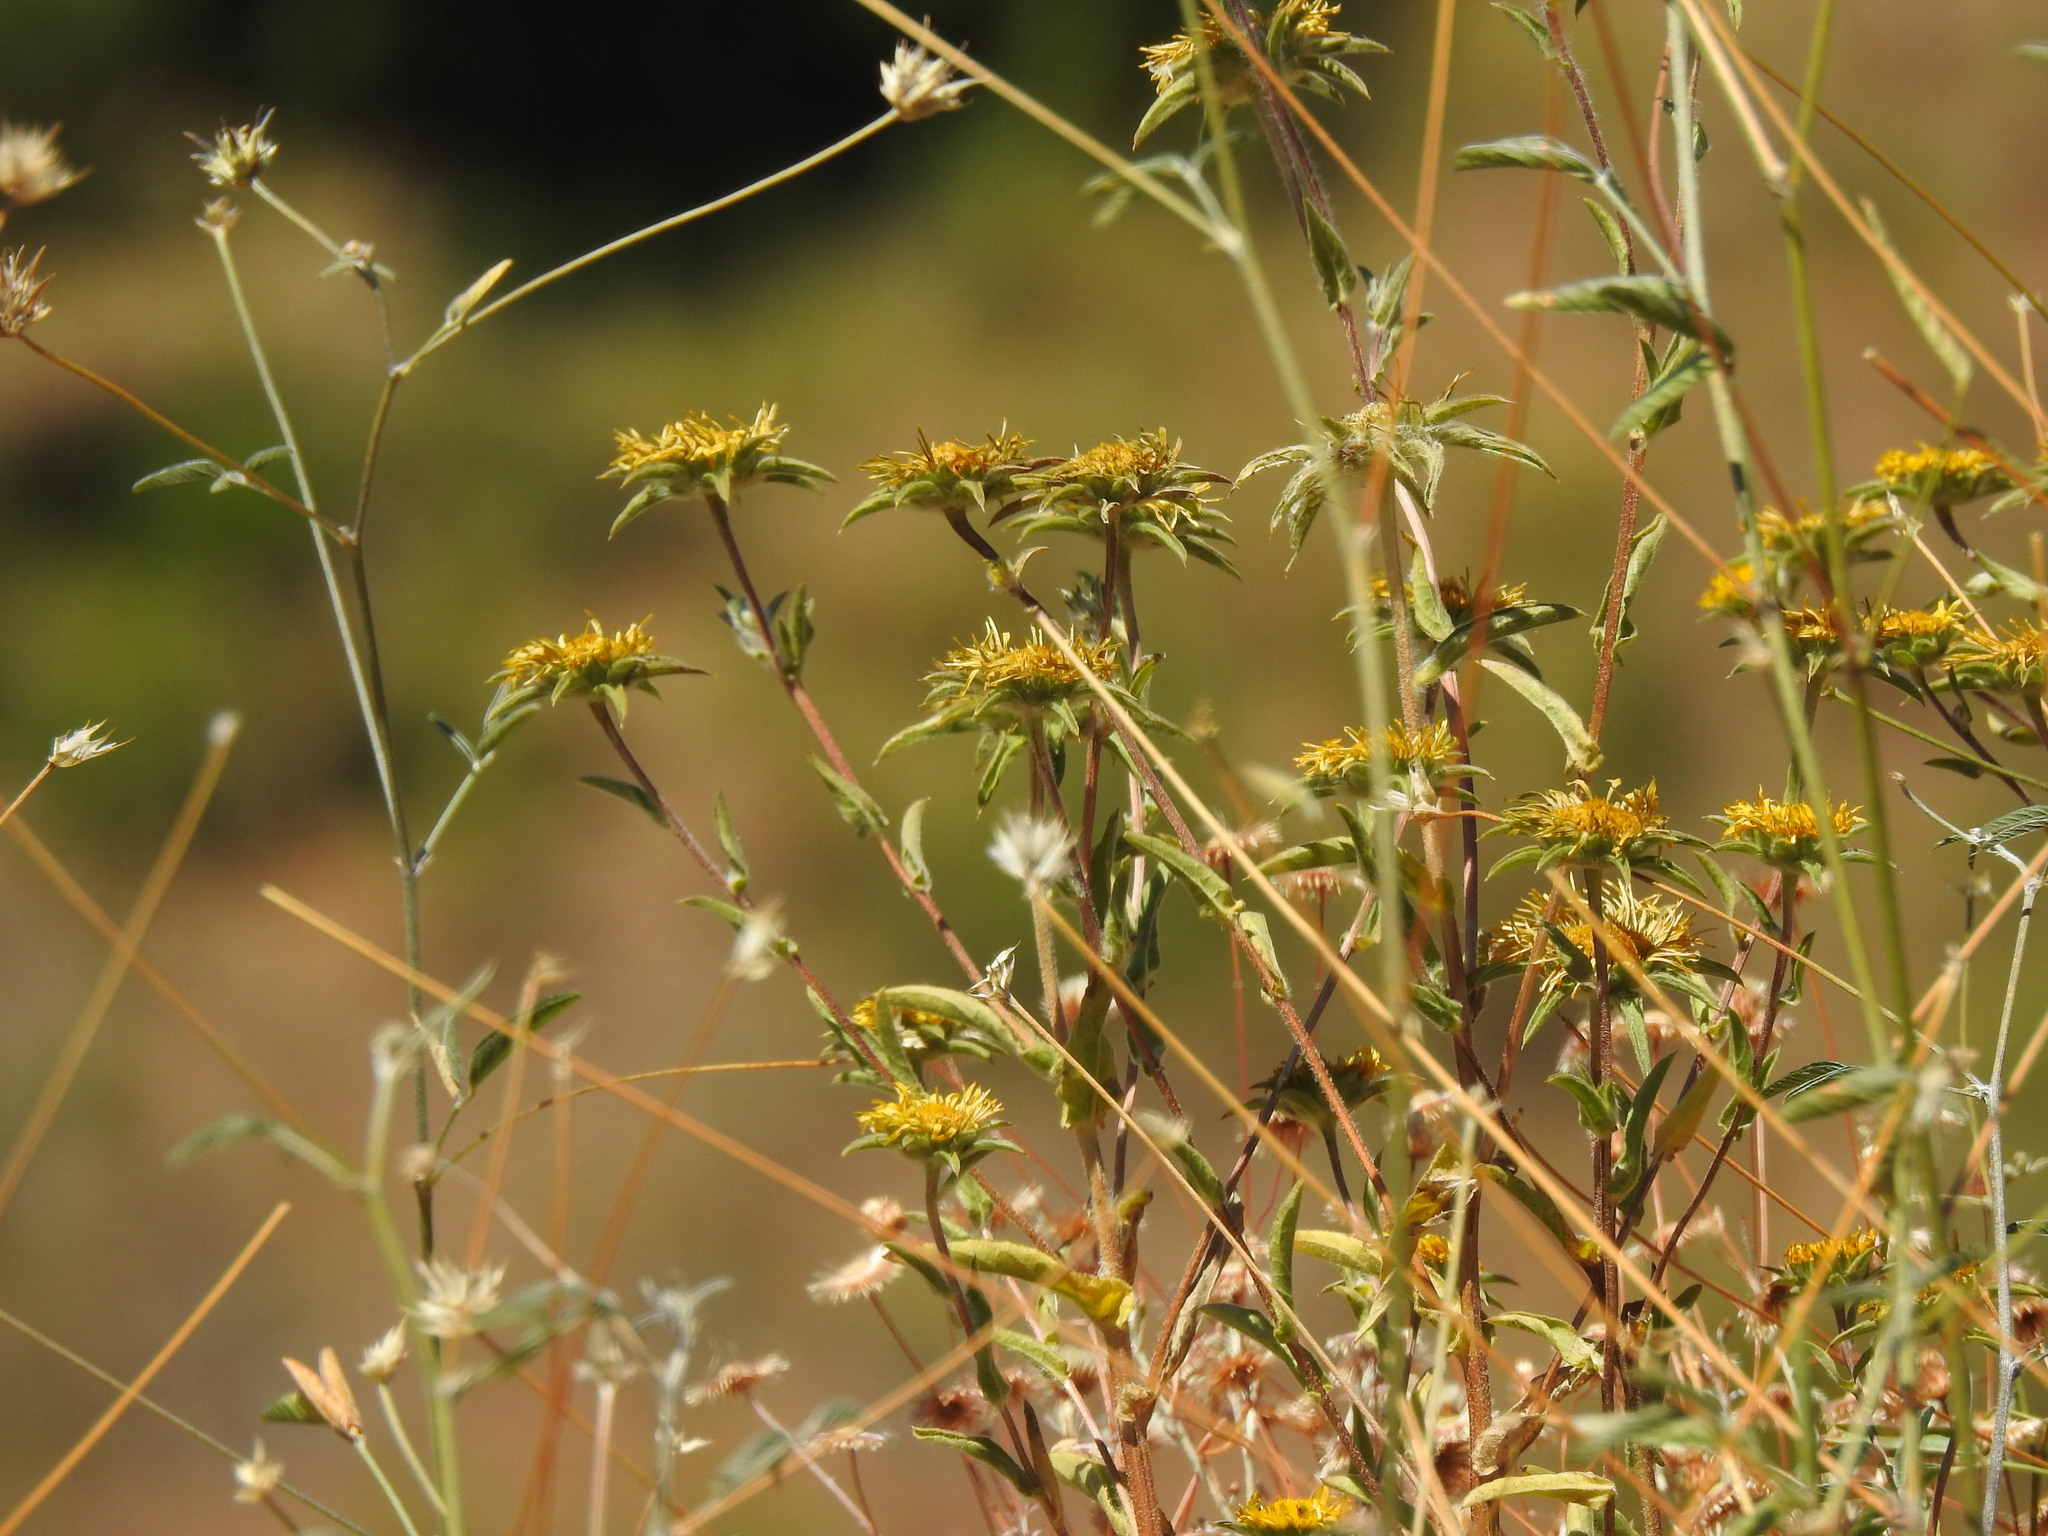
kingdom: Plantae
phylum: Tracheophyta
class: Magnoliopsida
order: Asterales
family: Asteraceae
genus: Pallenis
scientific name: Pallenis spinosa
